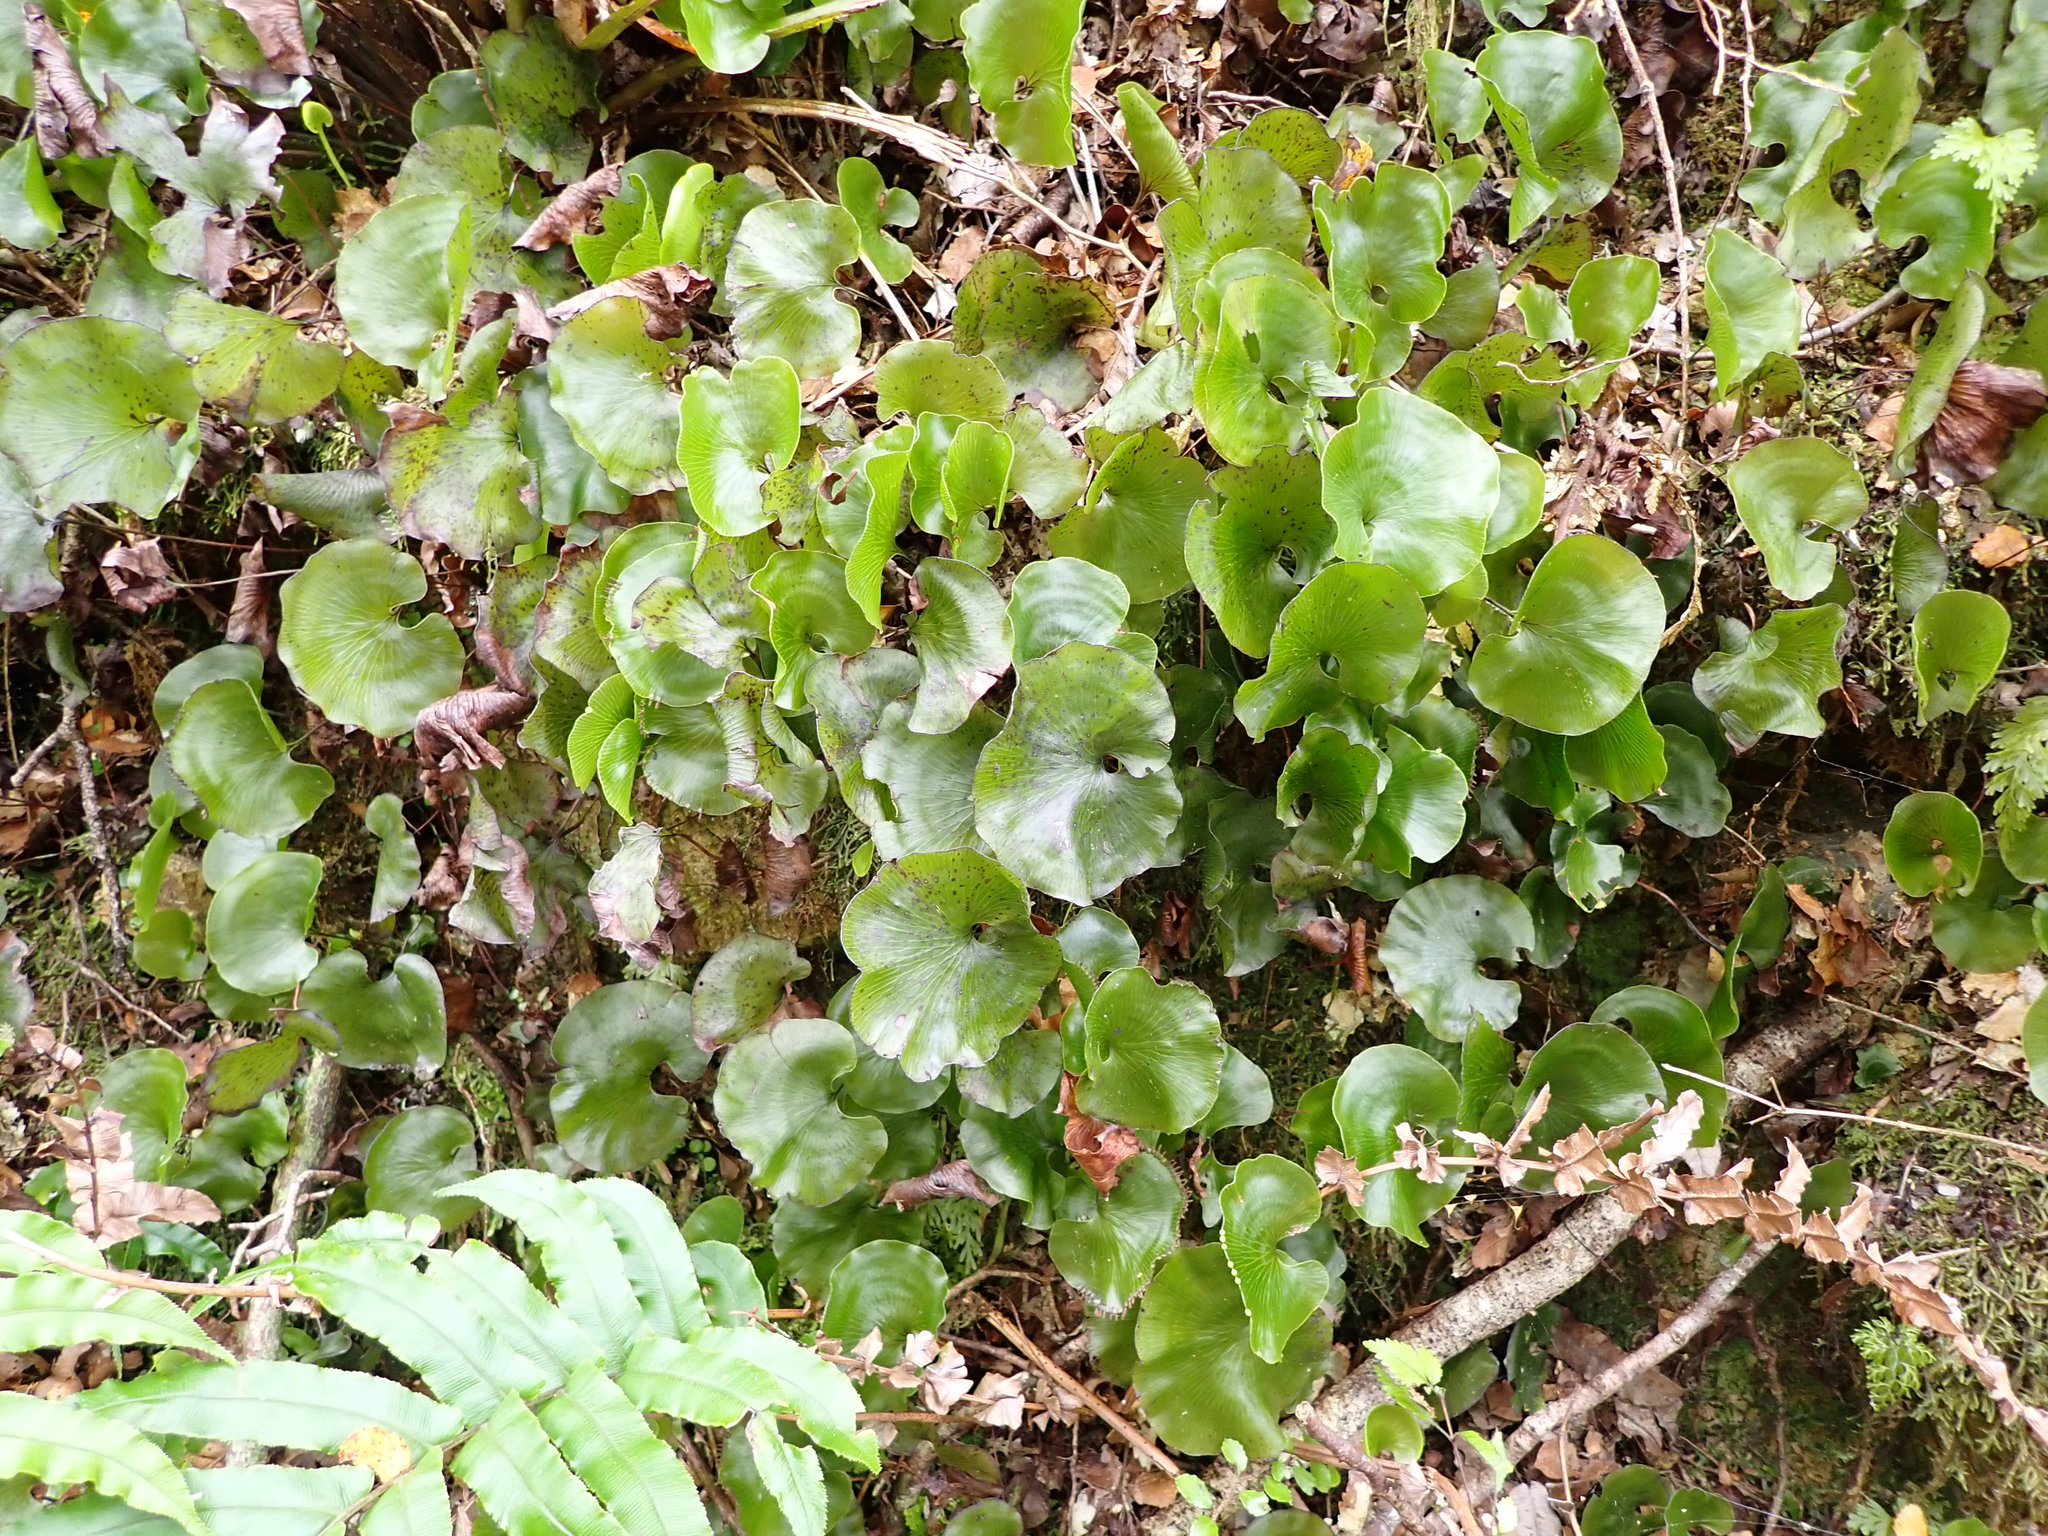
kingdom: Plantae
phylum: Tracheophyta
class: Polypodiopsida
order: Hymenophyllales
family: Hymenophyllaceae
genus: Hymenophyllum
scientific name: Hymenophyllum nephrophyllum
